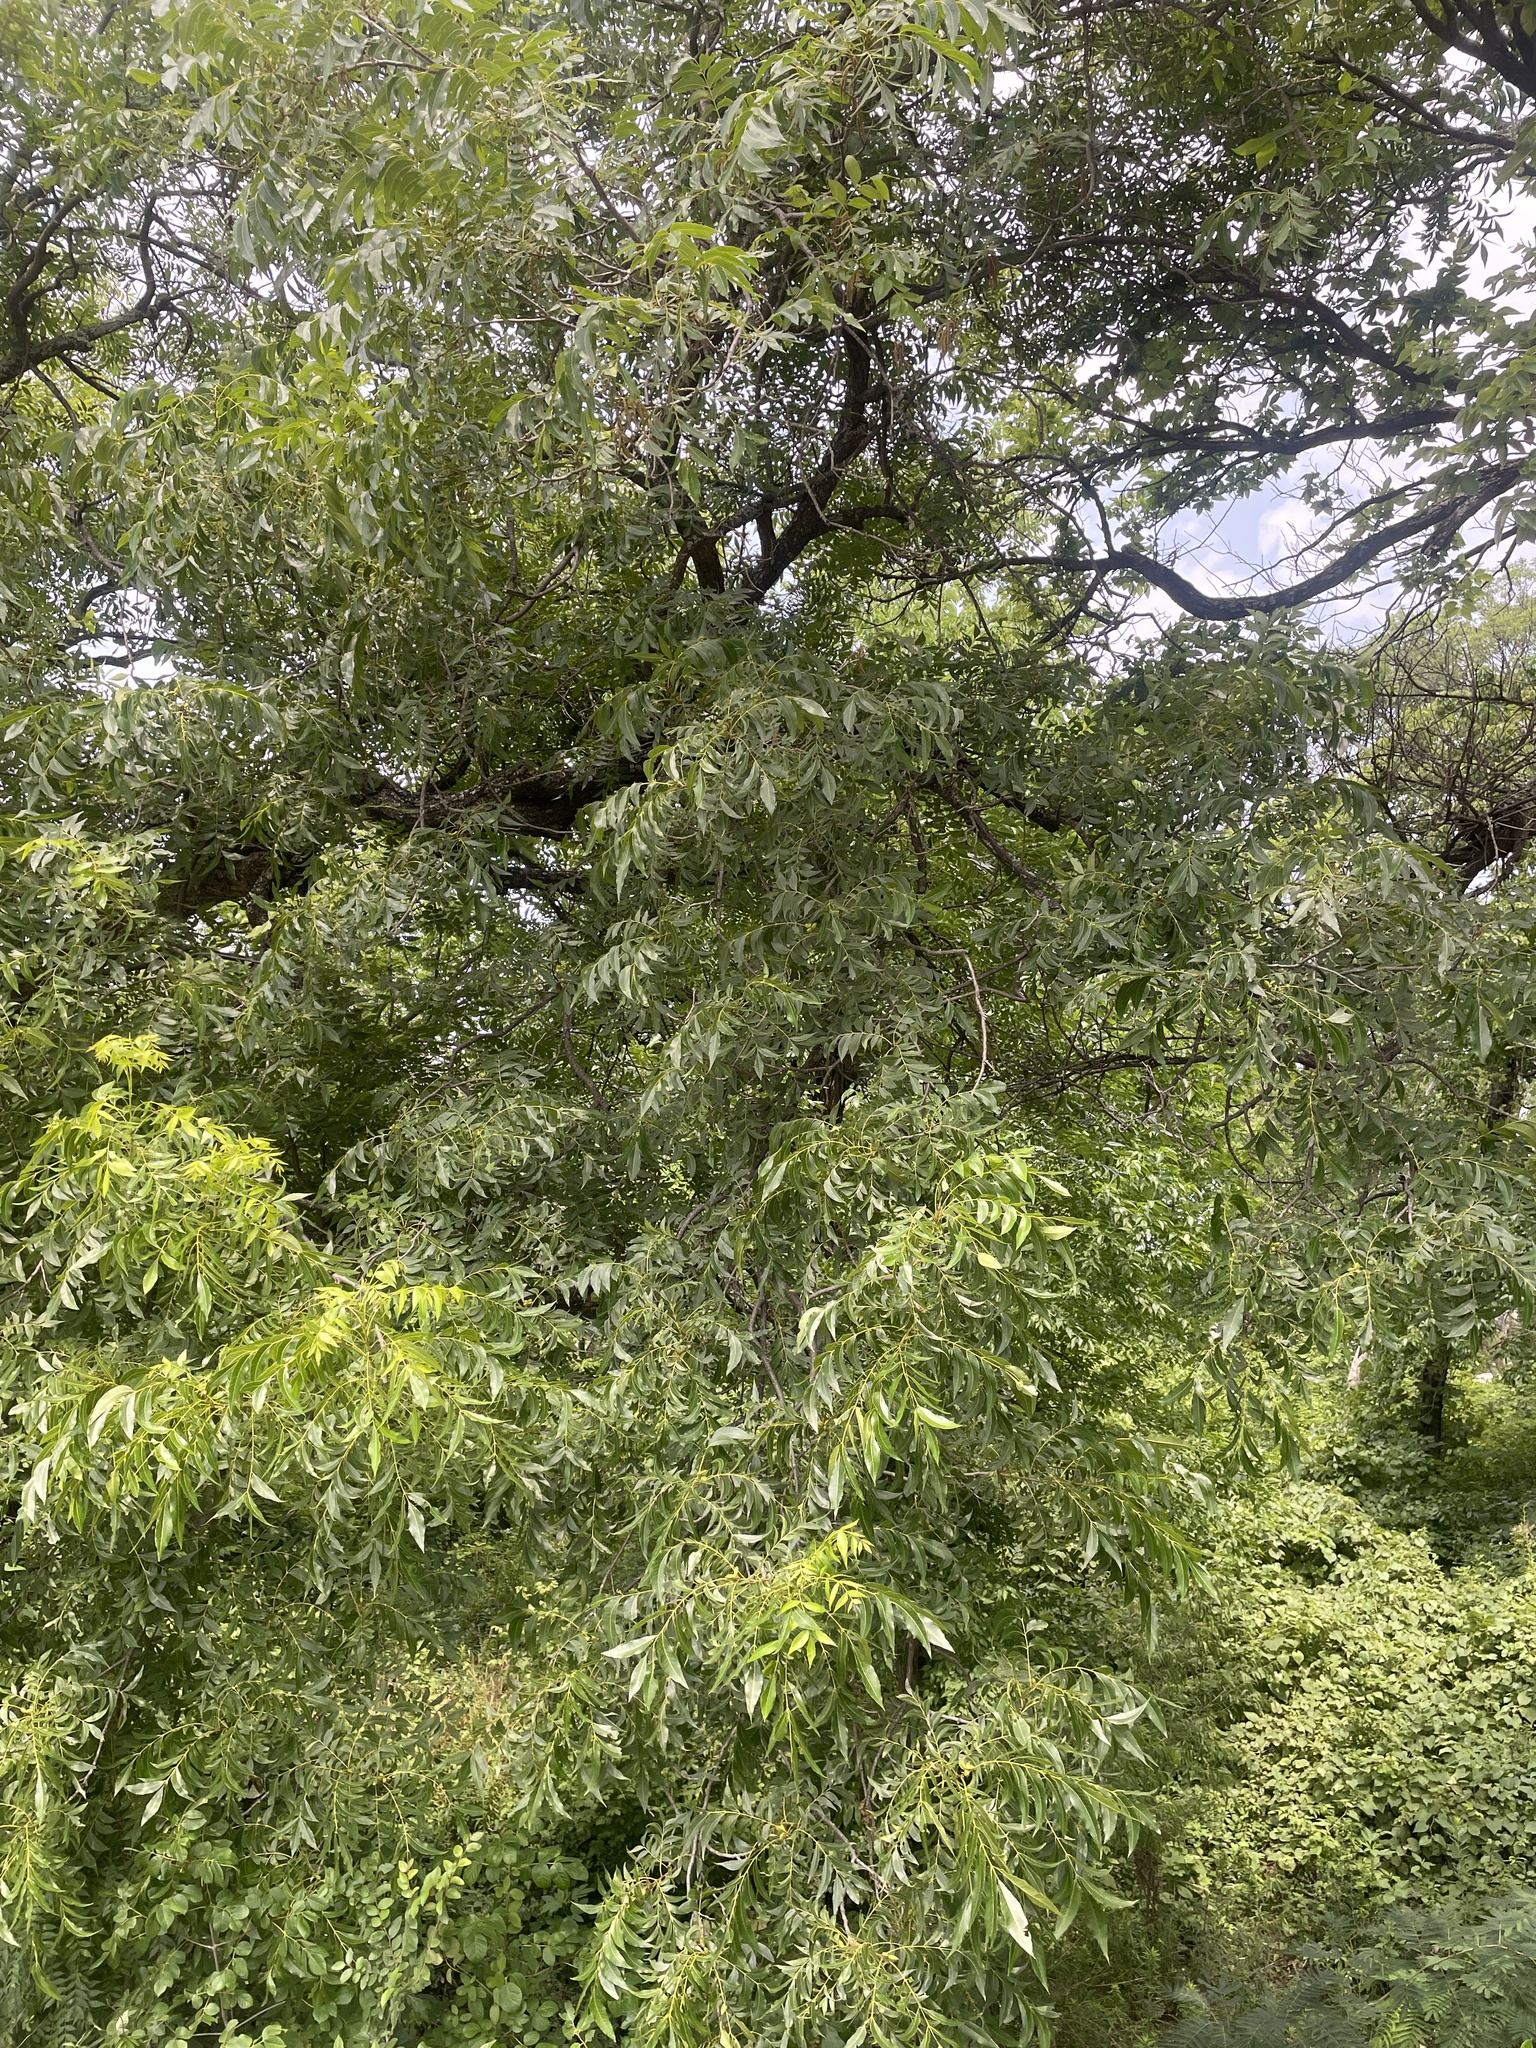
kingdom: Plantae
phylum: Tracheophyta
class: Magnoliopsida
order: Fagales
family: Juglandaceae
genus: Carya
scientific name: Carya illinoinensis
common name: Pecan
